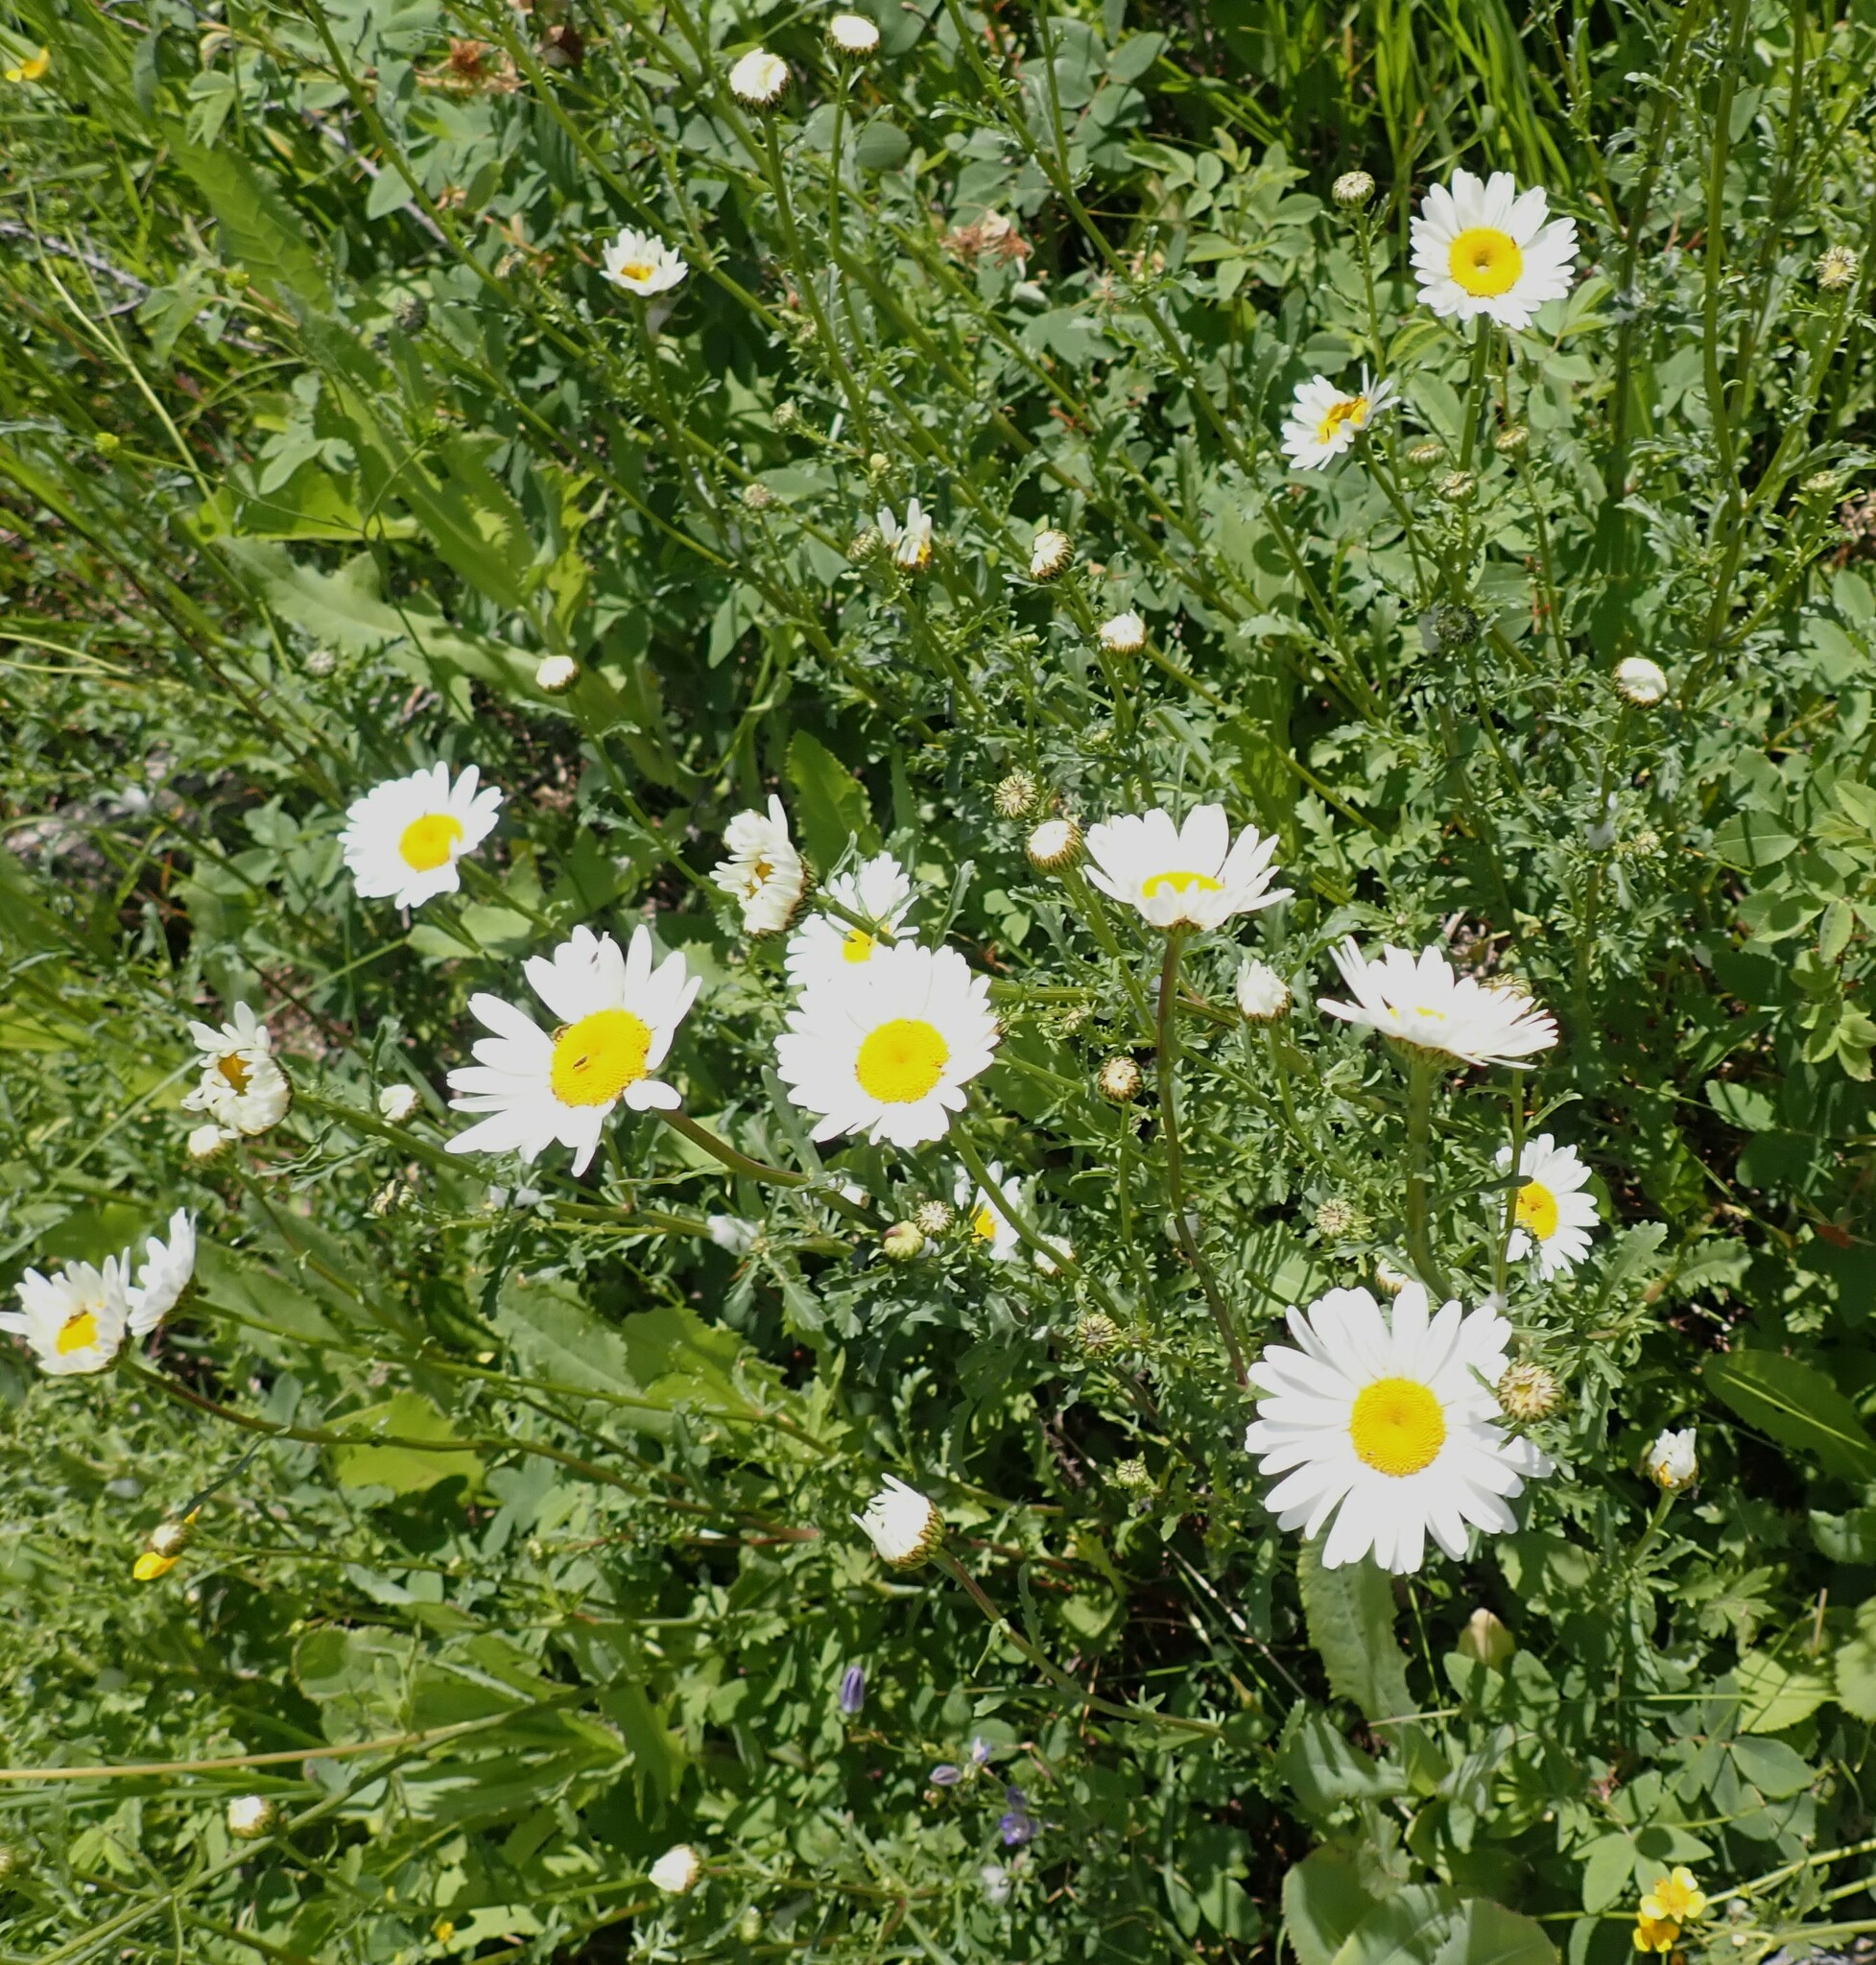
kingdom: Plantae
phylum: Tracheophyta
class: Magnoliopsida
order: Asterales
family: Asteraceae
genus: Leucanthemum
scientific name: Leucanthemum vulgare
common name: Oxeye daisy
